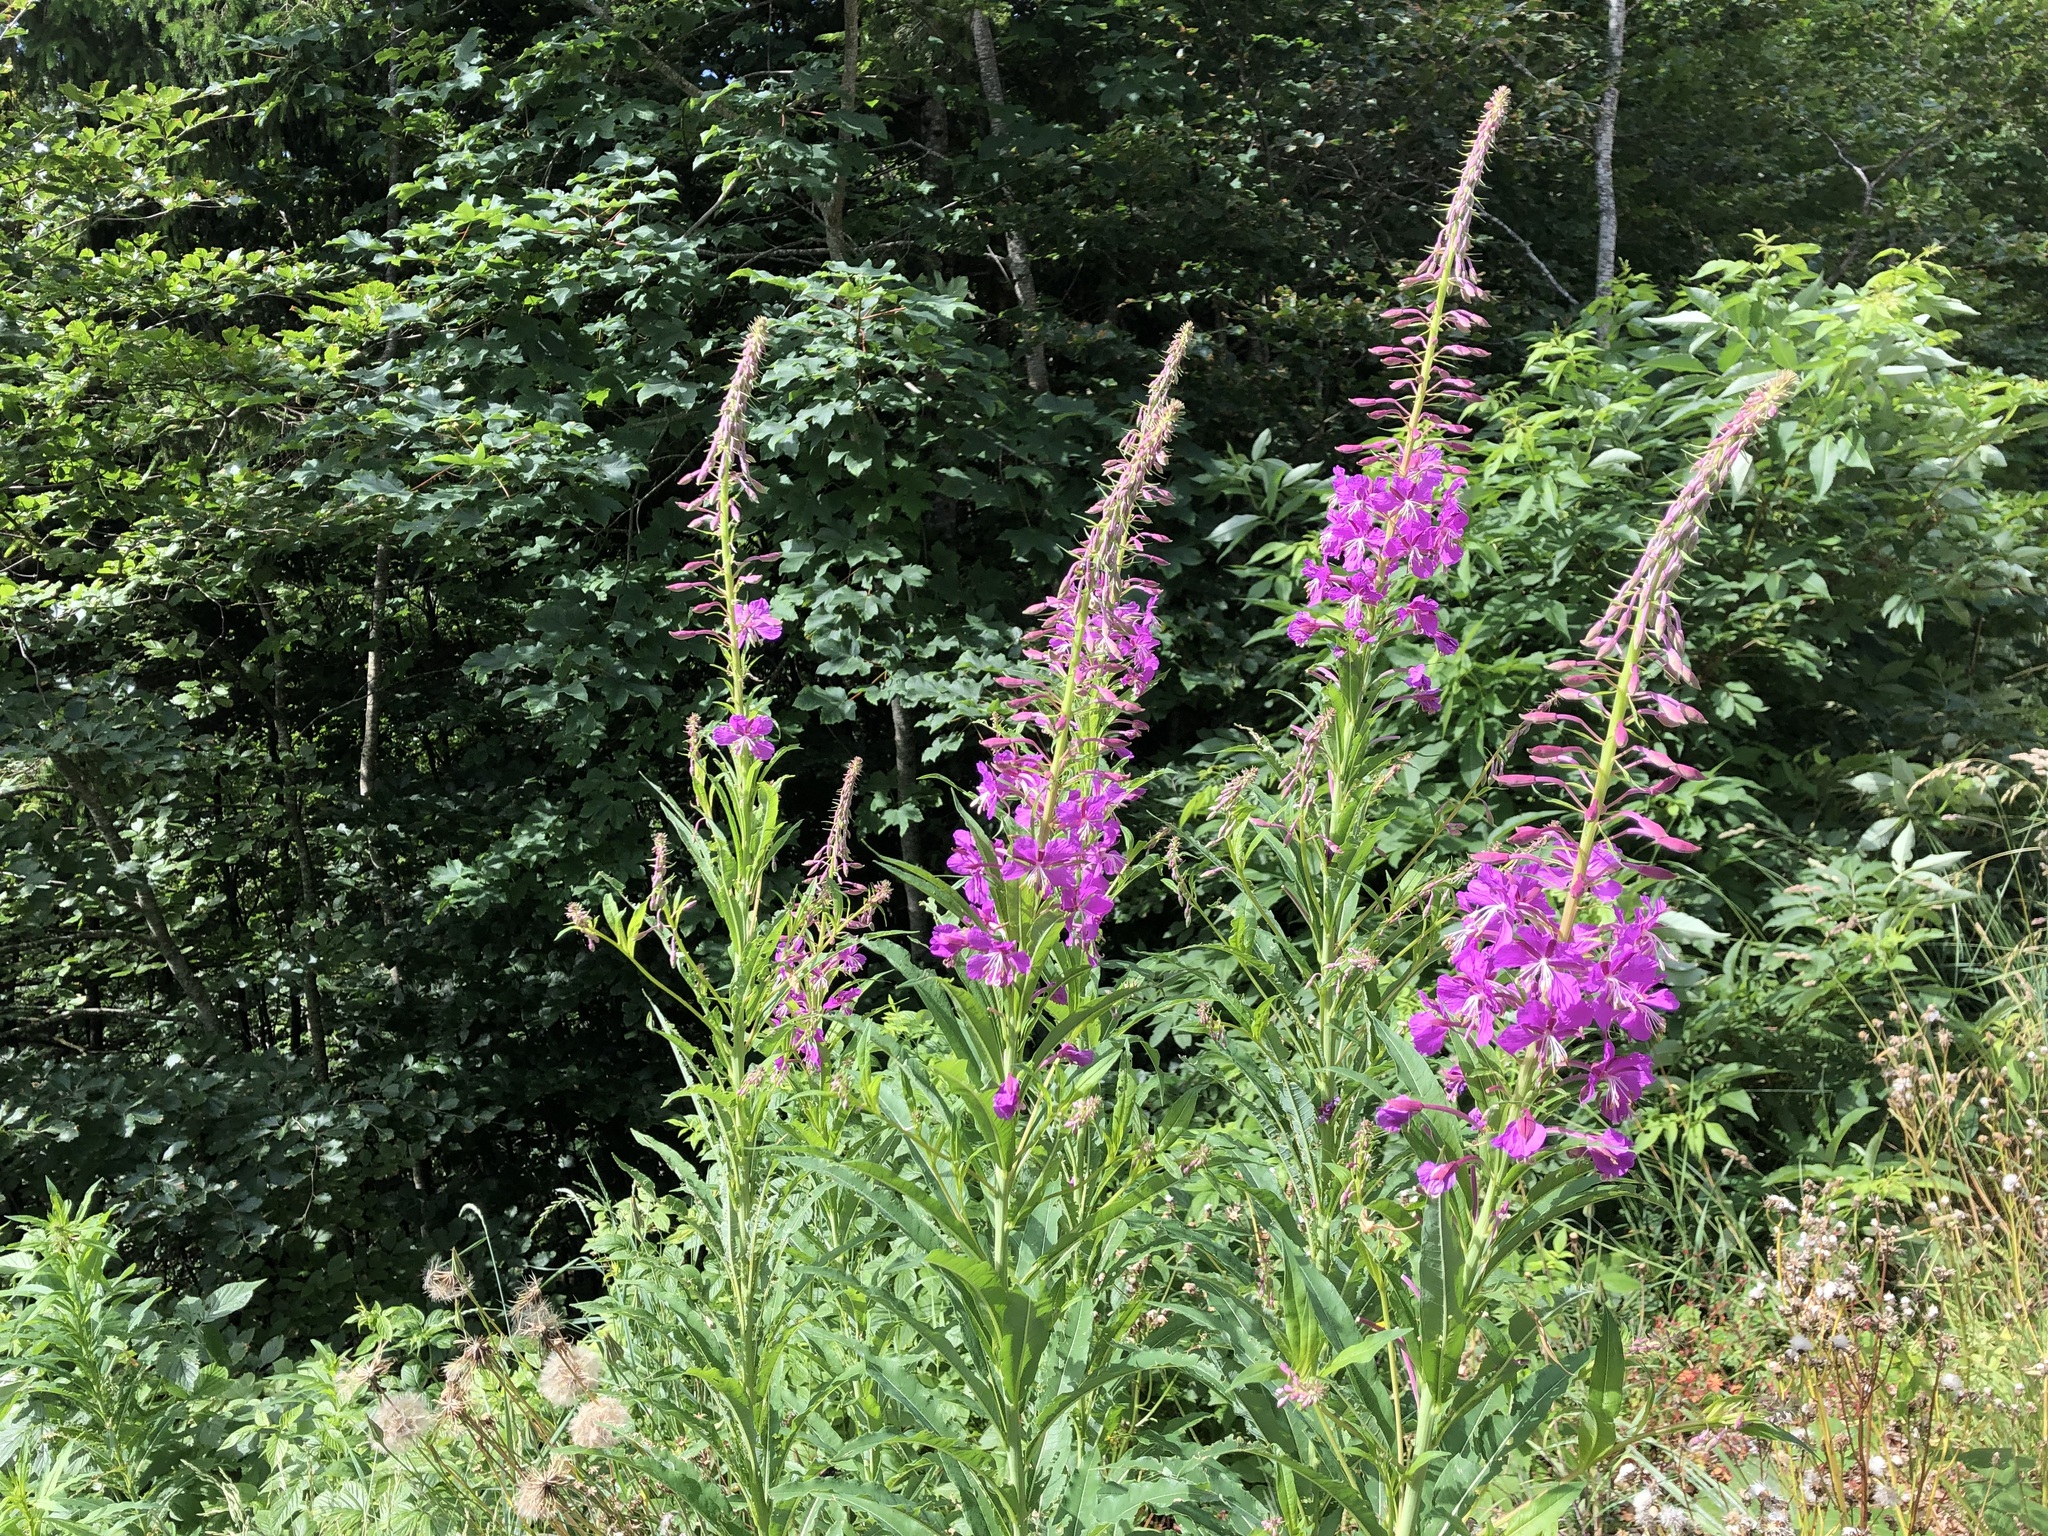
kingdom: Plantae
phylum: Tracheophyta
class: Magnoliopsida
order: Myrtales
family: Onagraceae
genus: Chamaenerion
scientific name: Chamaenerion angustifolium
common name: Fireweed
